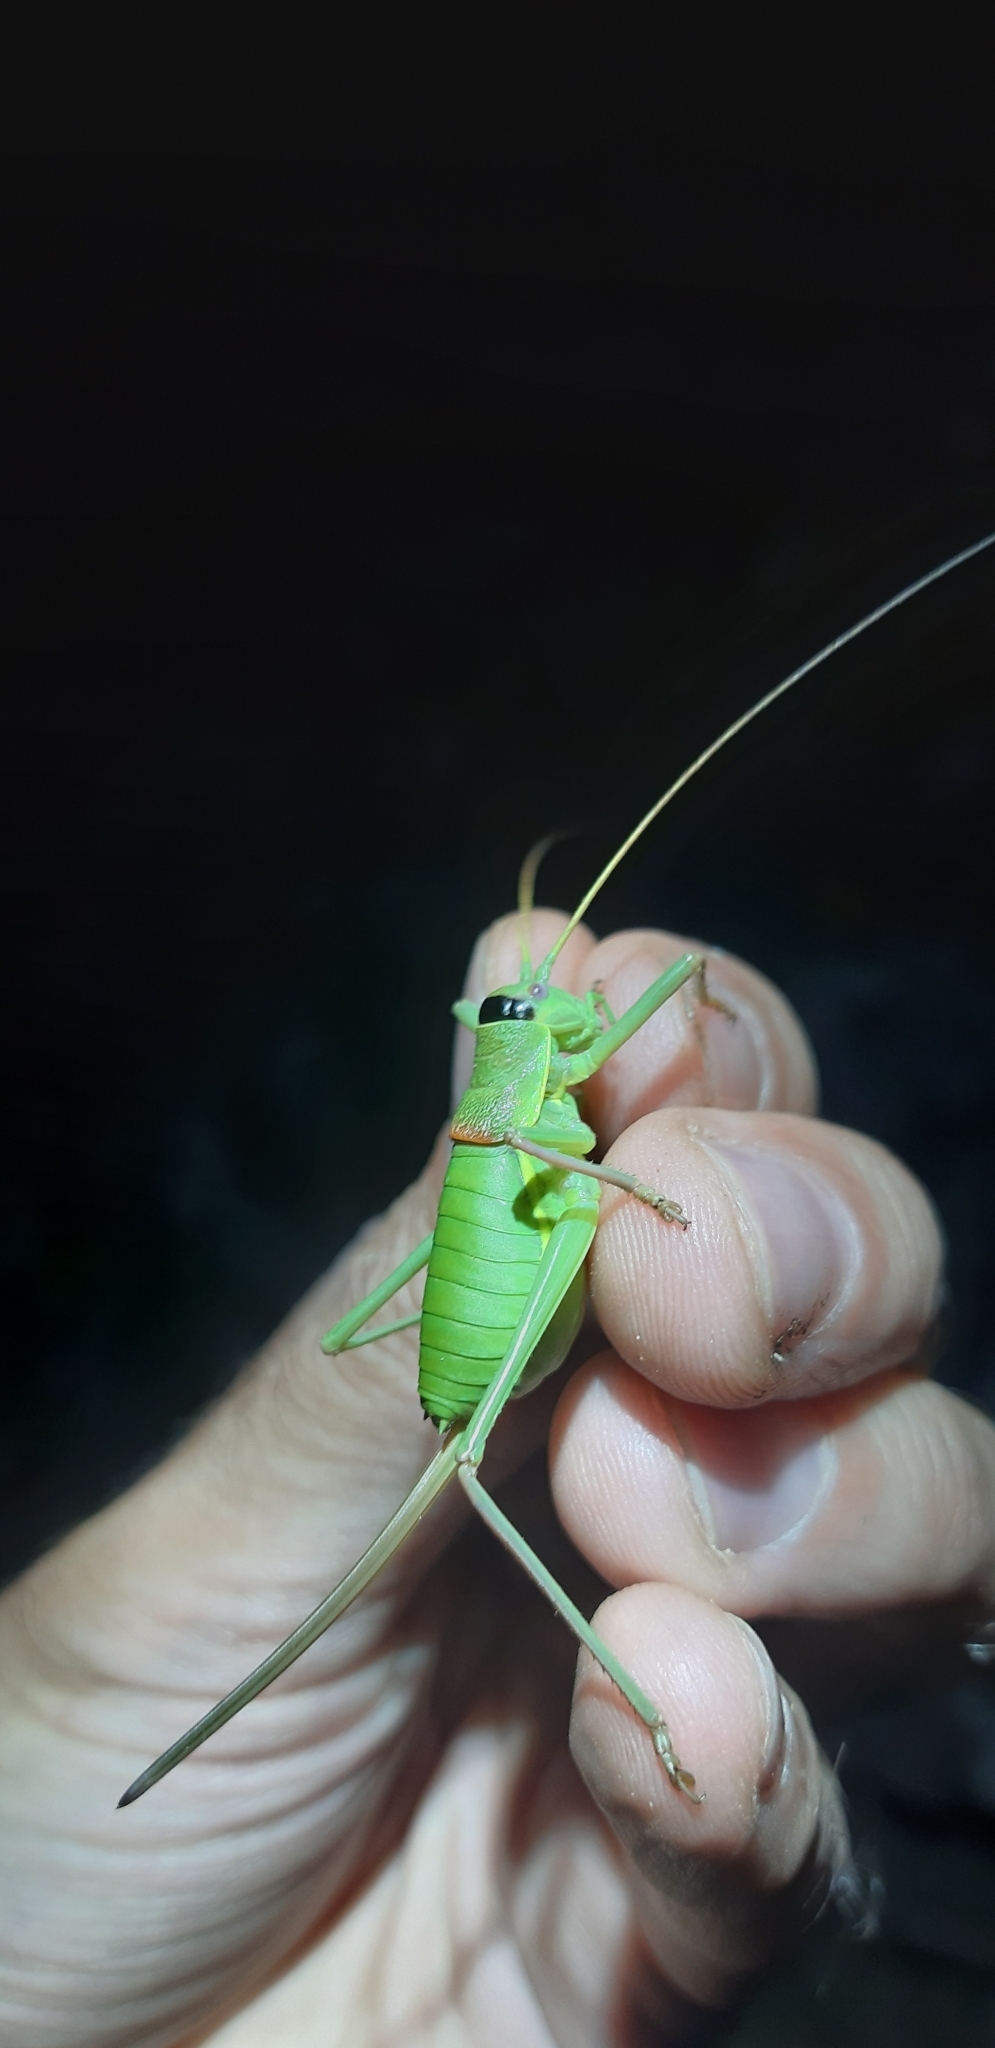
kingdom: Animalia
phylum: Arthropoda
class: Insecta
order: Orthoptera
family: Tettigoniidae
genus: Ephippiger
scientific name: Ephippiger cavannai
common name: Cavanna's saddle bush-cricket
